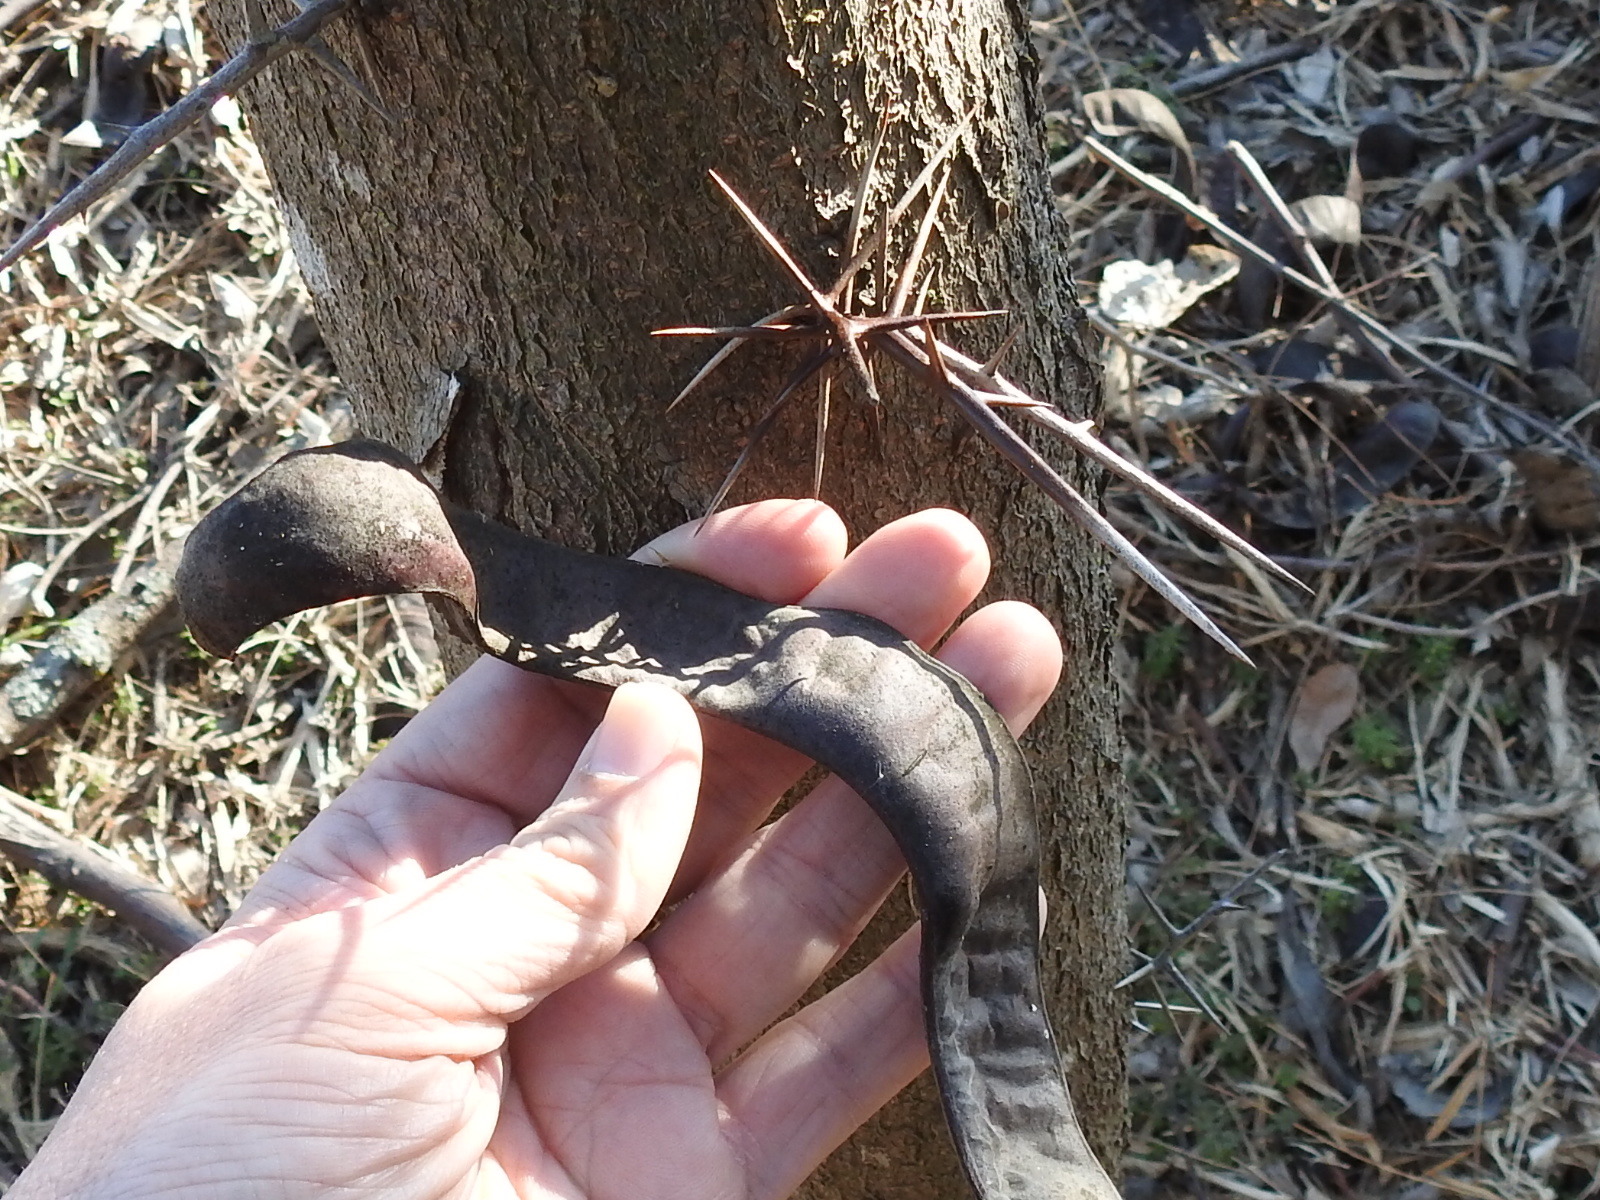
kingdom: Plantae
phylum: Tracheophyta
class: Magnoliopsida
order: Fabales
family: Fabaceae
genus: Gleditsia
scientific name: Gleditsia triacanthos
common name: Common honeylocust
